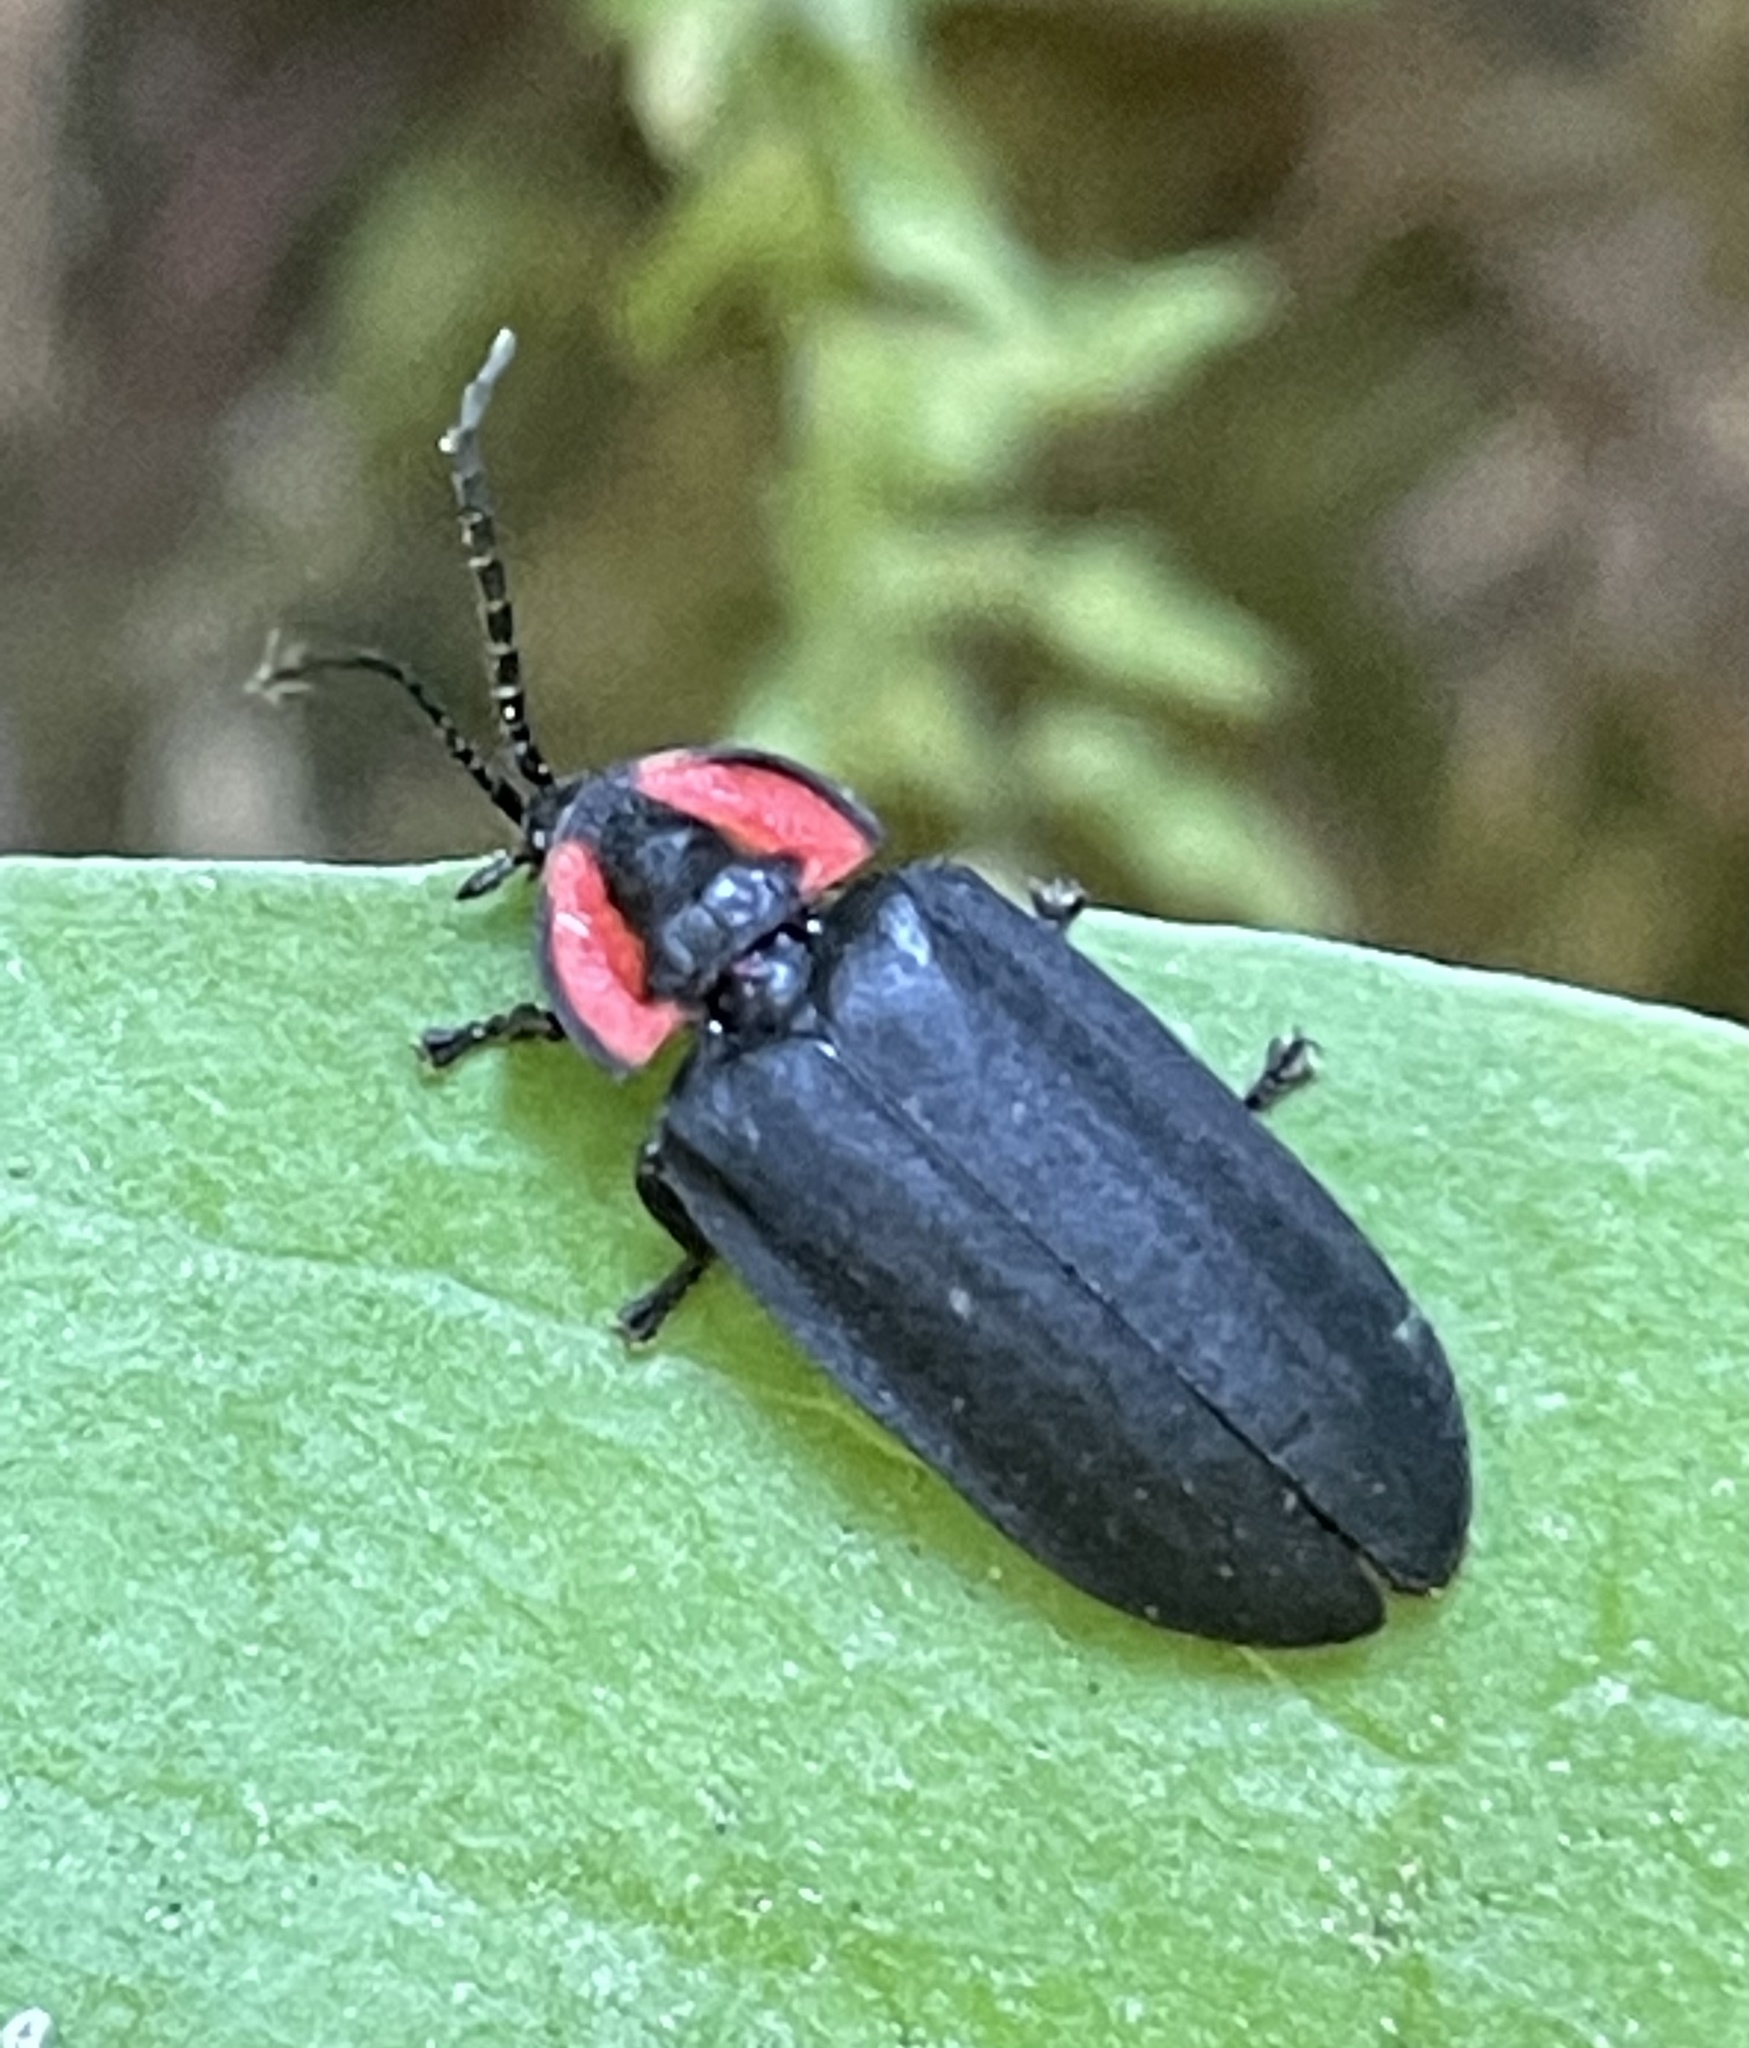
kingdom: Animalia
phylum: Arthropoda
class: Insecta
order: Coleoptera
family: Lampyridae
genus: Photinus
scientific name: Photinus californica
